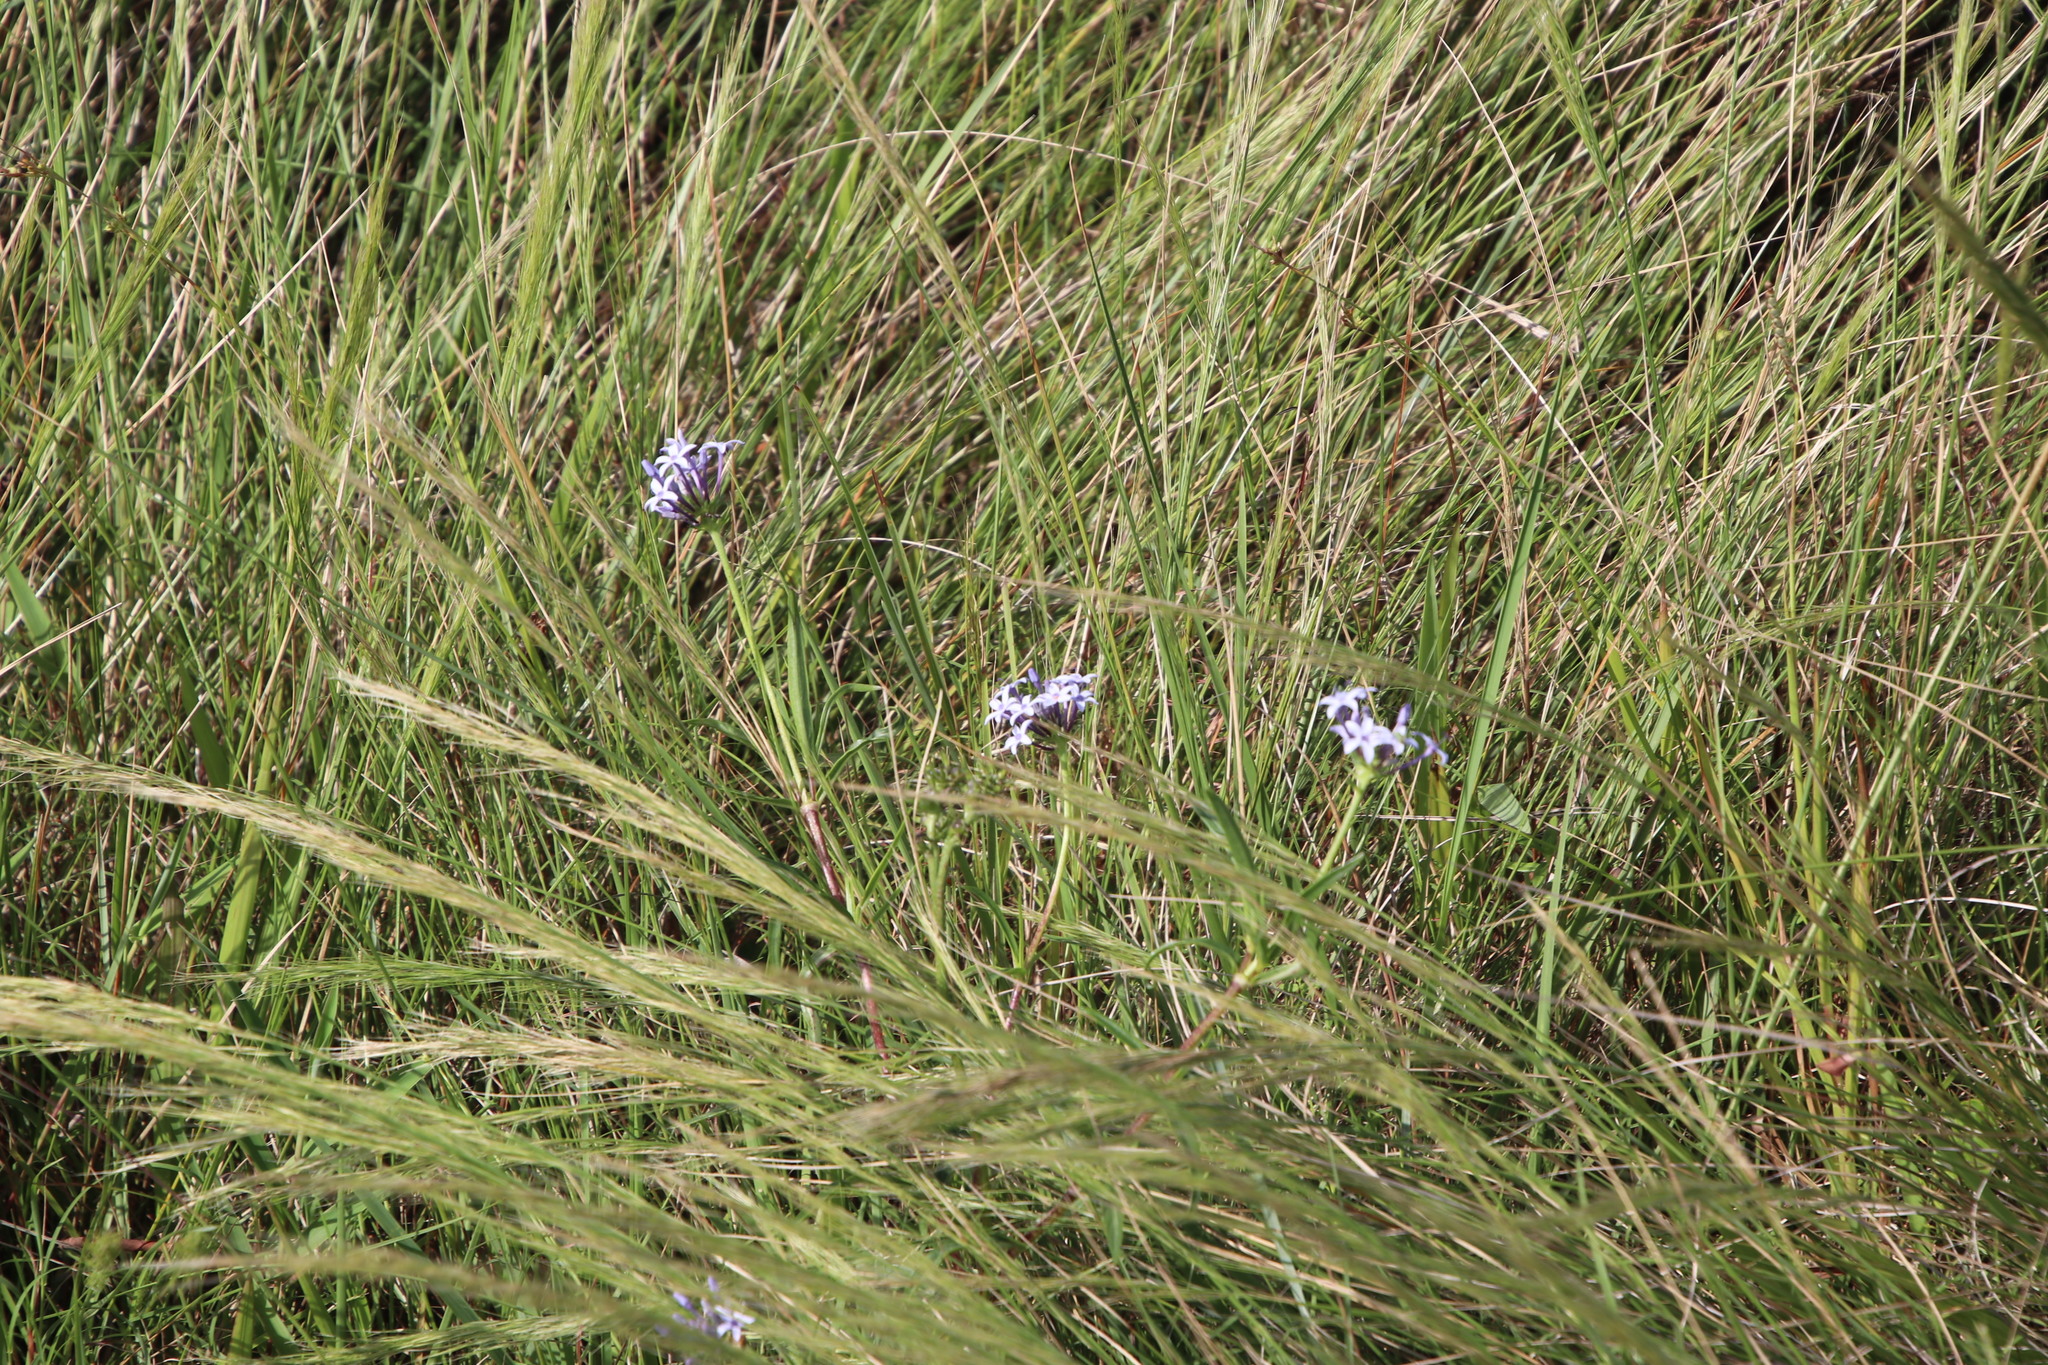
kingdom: Plantae
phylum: Tracheophyta
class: Magnoliopsida
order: Gentianales
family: Rubiaceae
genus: Pentanisia
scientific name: Pentanisia angustifolia
